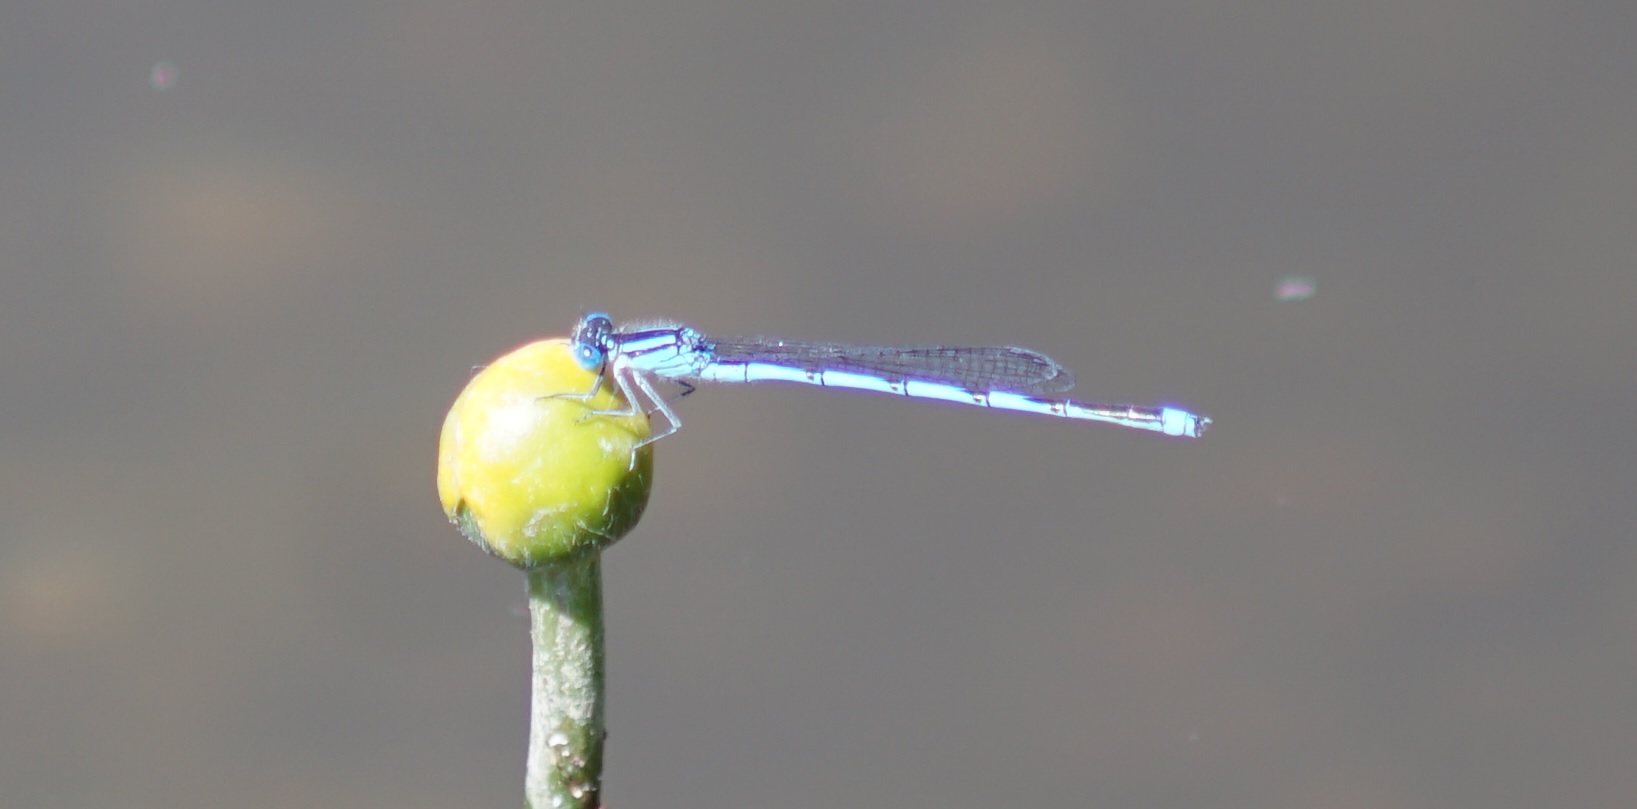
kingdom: Animalia
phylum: Arthropoda
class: Insecta
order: Odonata
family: Coenagrionidae
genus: Erythromma
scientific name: Erythromma lindenii
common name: Blue-eye
